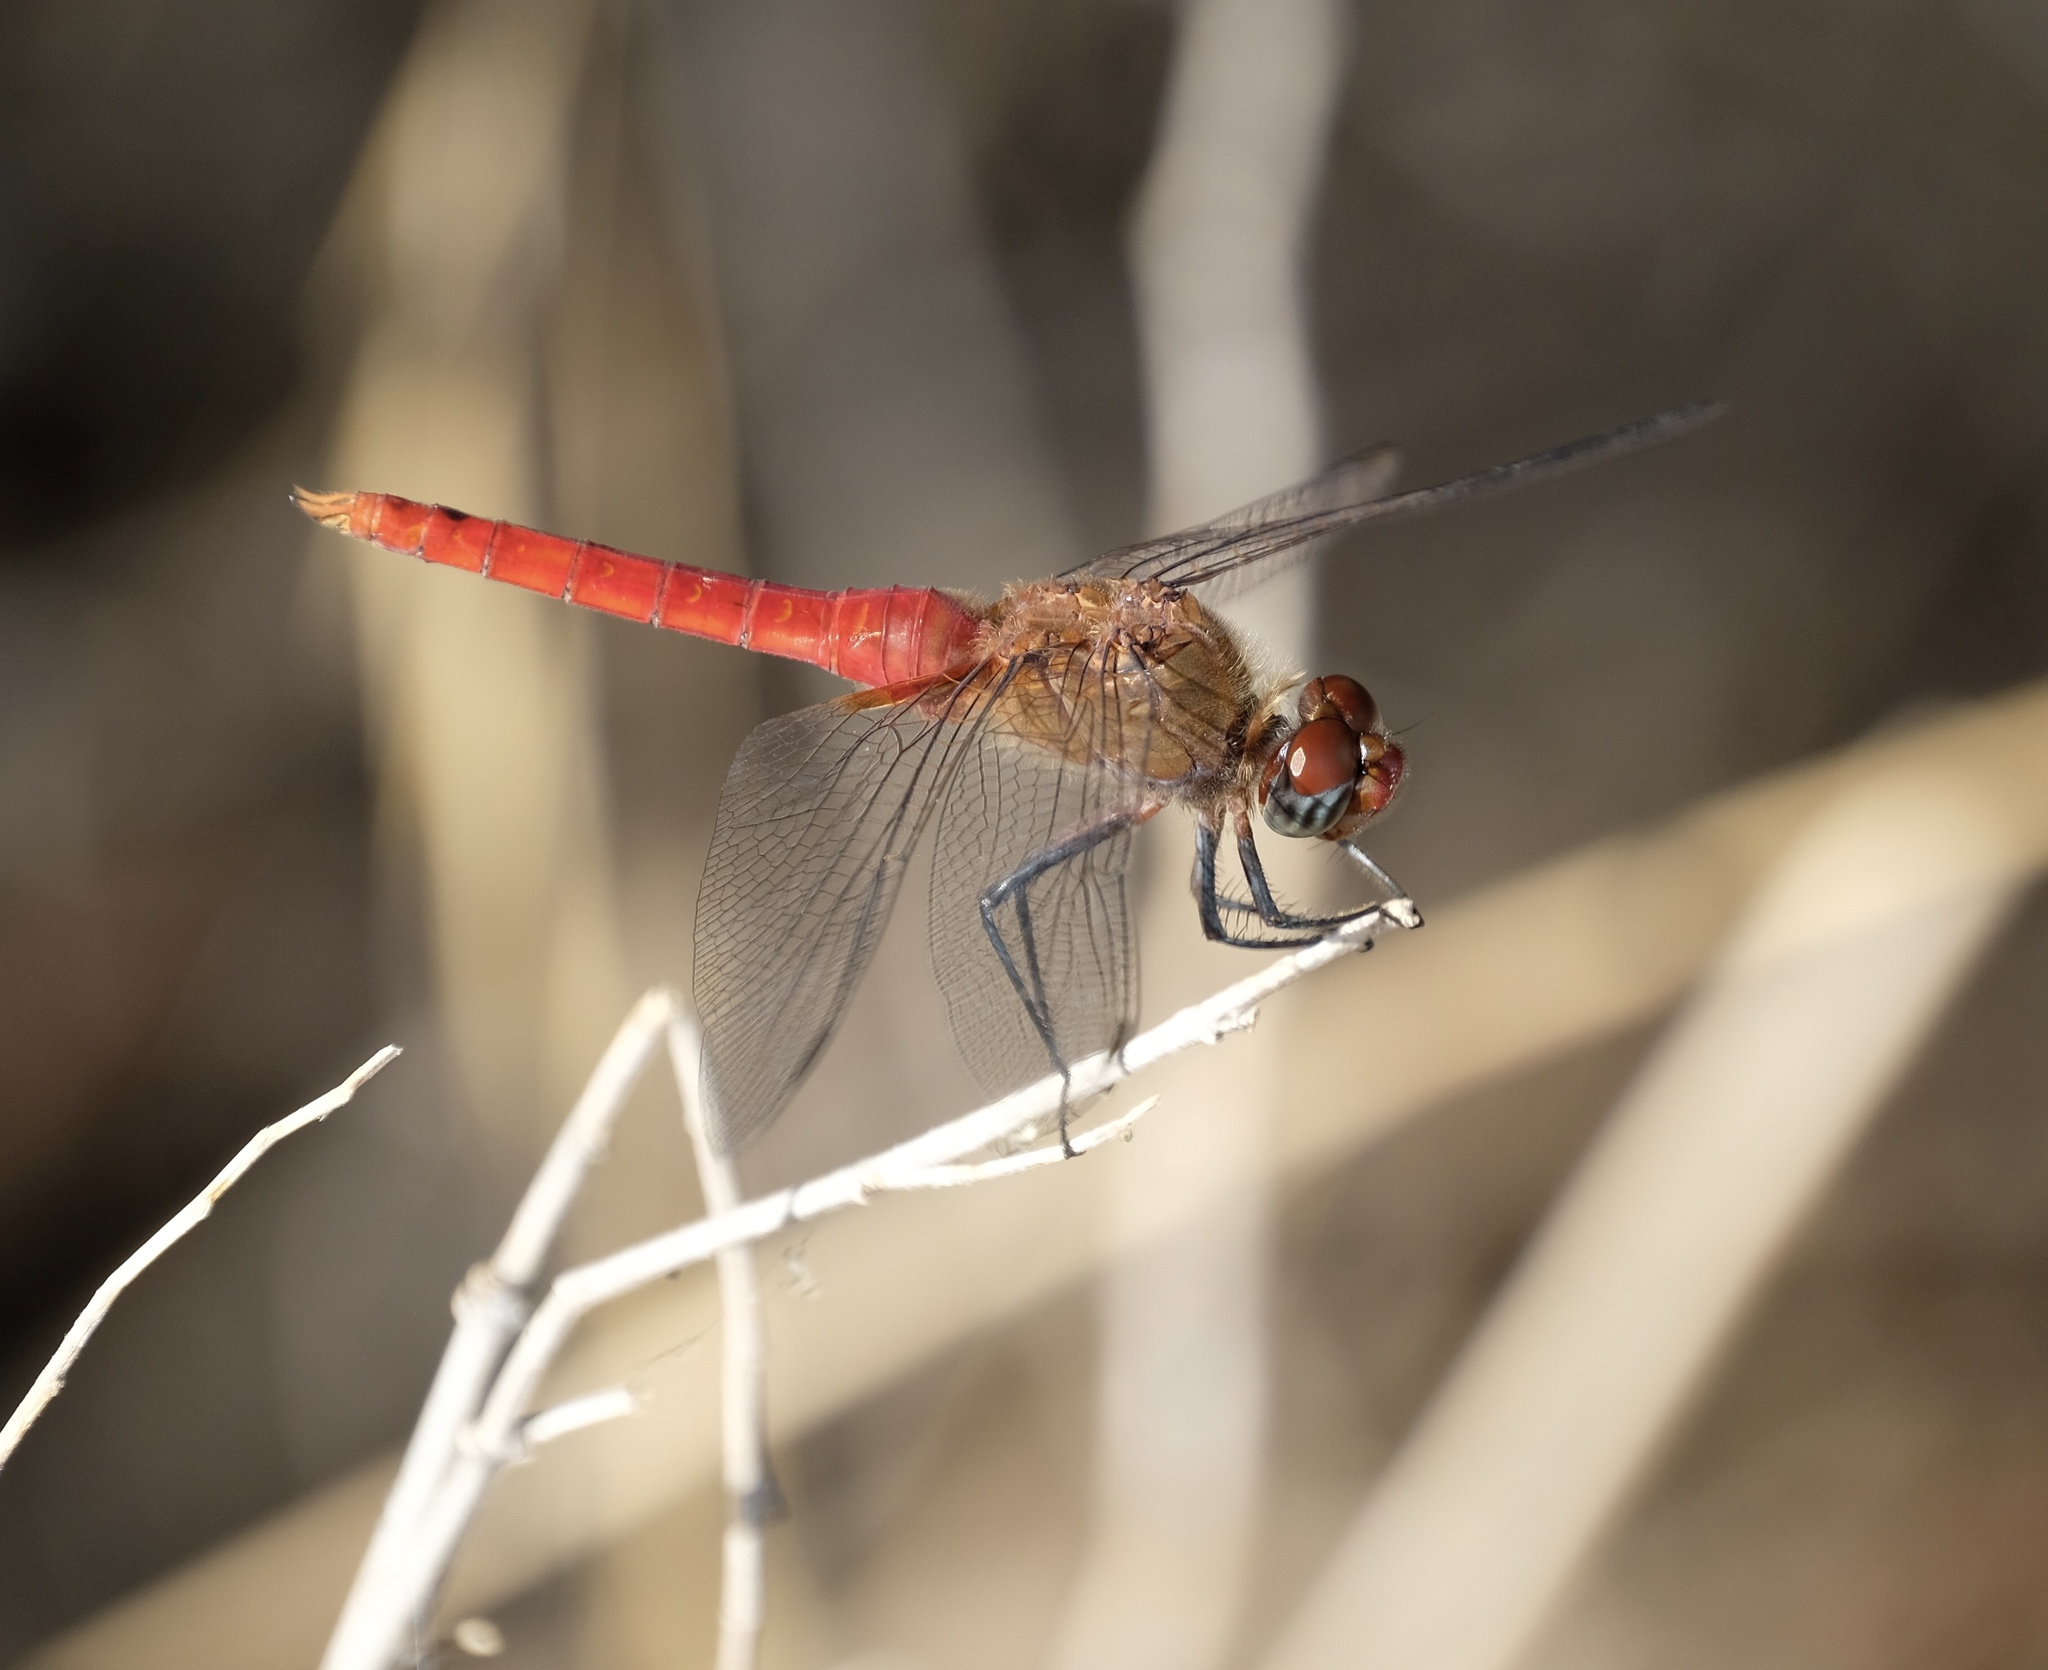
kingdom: Animalia
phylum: Arthropoda
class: Insecta
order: Odonata
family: Libellulidae
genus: Brachymesia
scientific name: Brachymesia furcata
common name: Red-taled pennant
